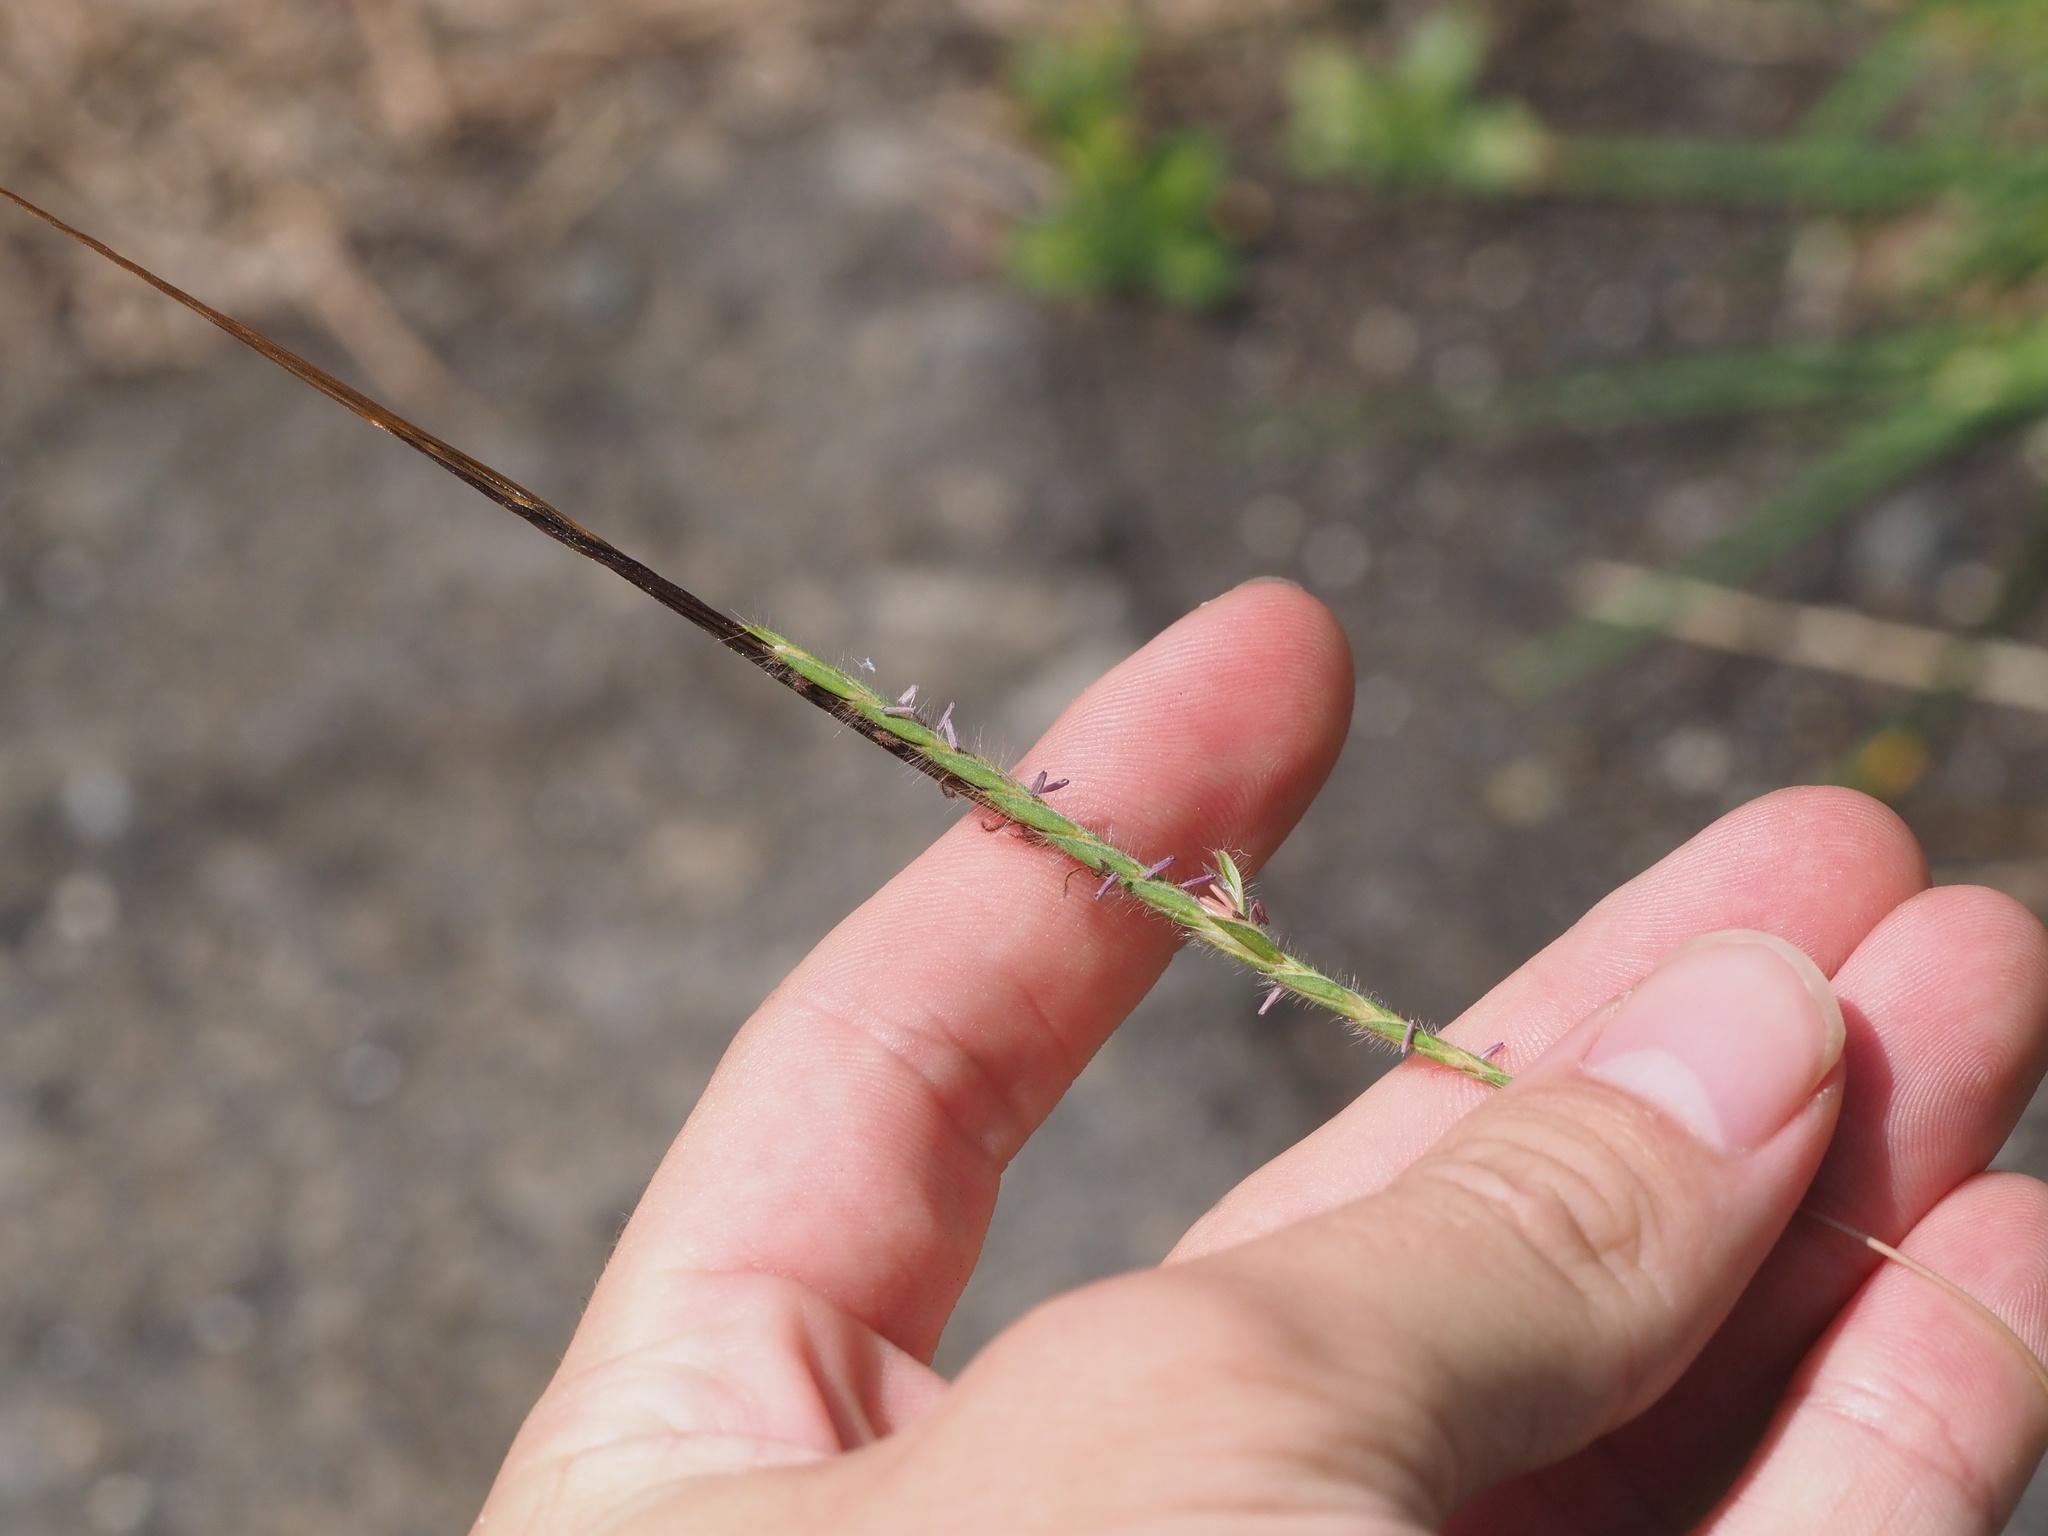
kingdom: Plantae
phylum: Tracheophyta
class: Liliopsida
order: Poales
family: Poaceae
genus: Heteropogon
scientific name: Heteropogon contortus
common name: Tanglehead
